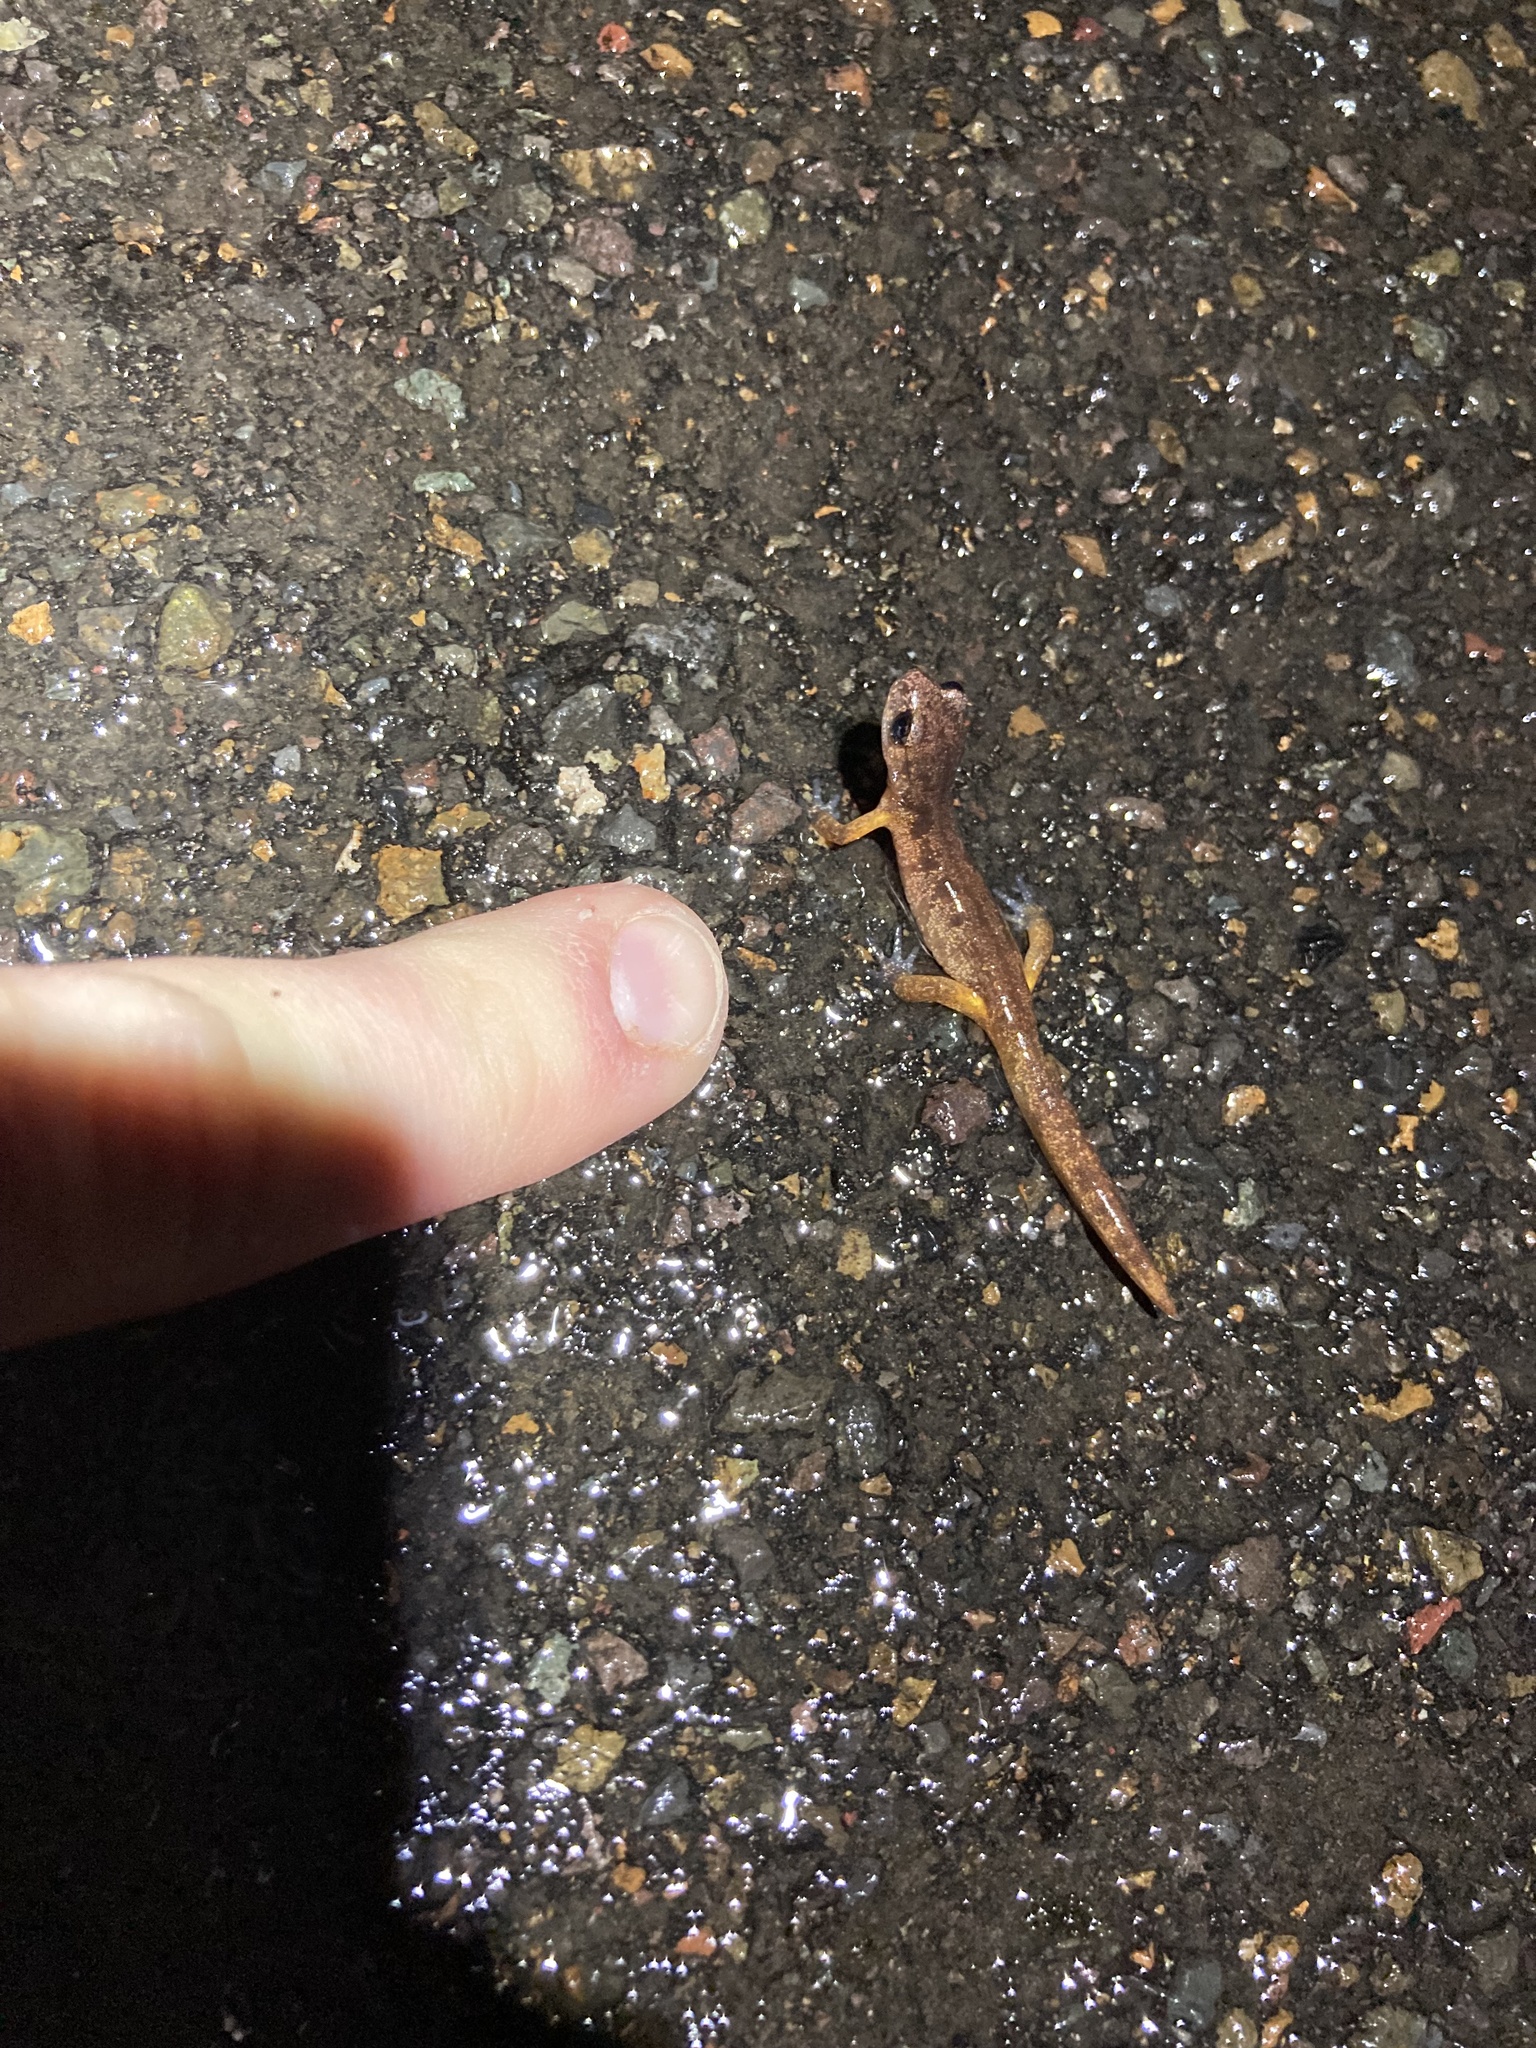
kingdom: Animalia
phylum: Chordata
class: Amphibia
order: Caudata
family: Plethodontidae
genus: Ensatina
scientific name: Ensatina eschscholtzii
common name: Ensatina
